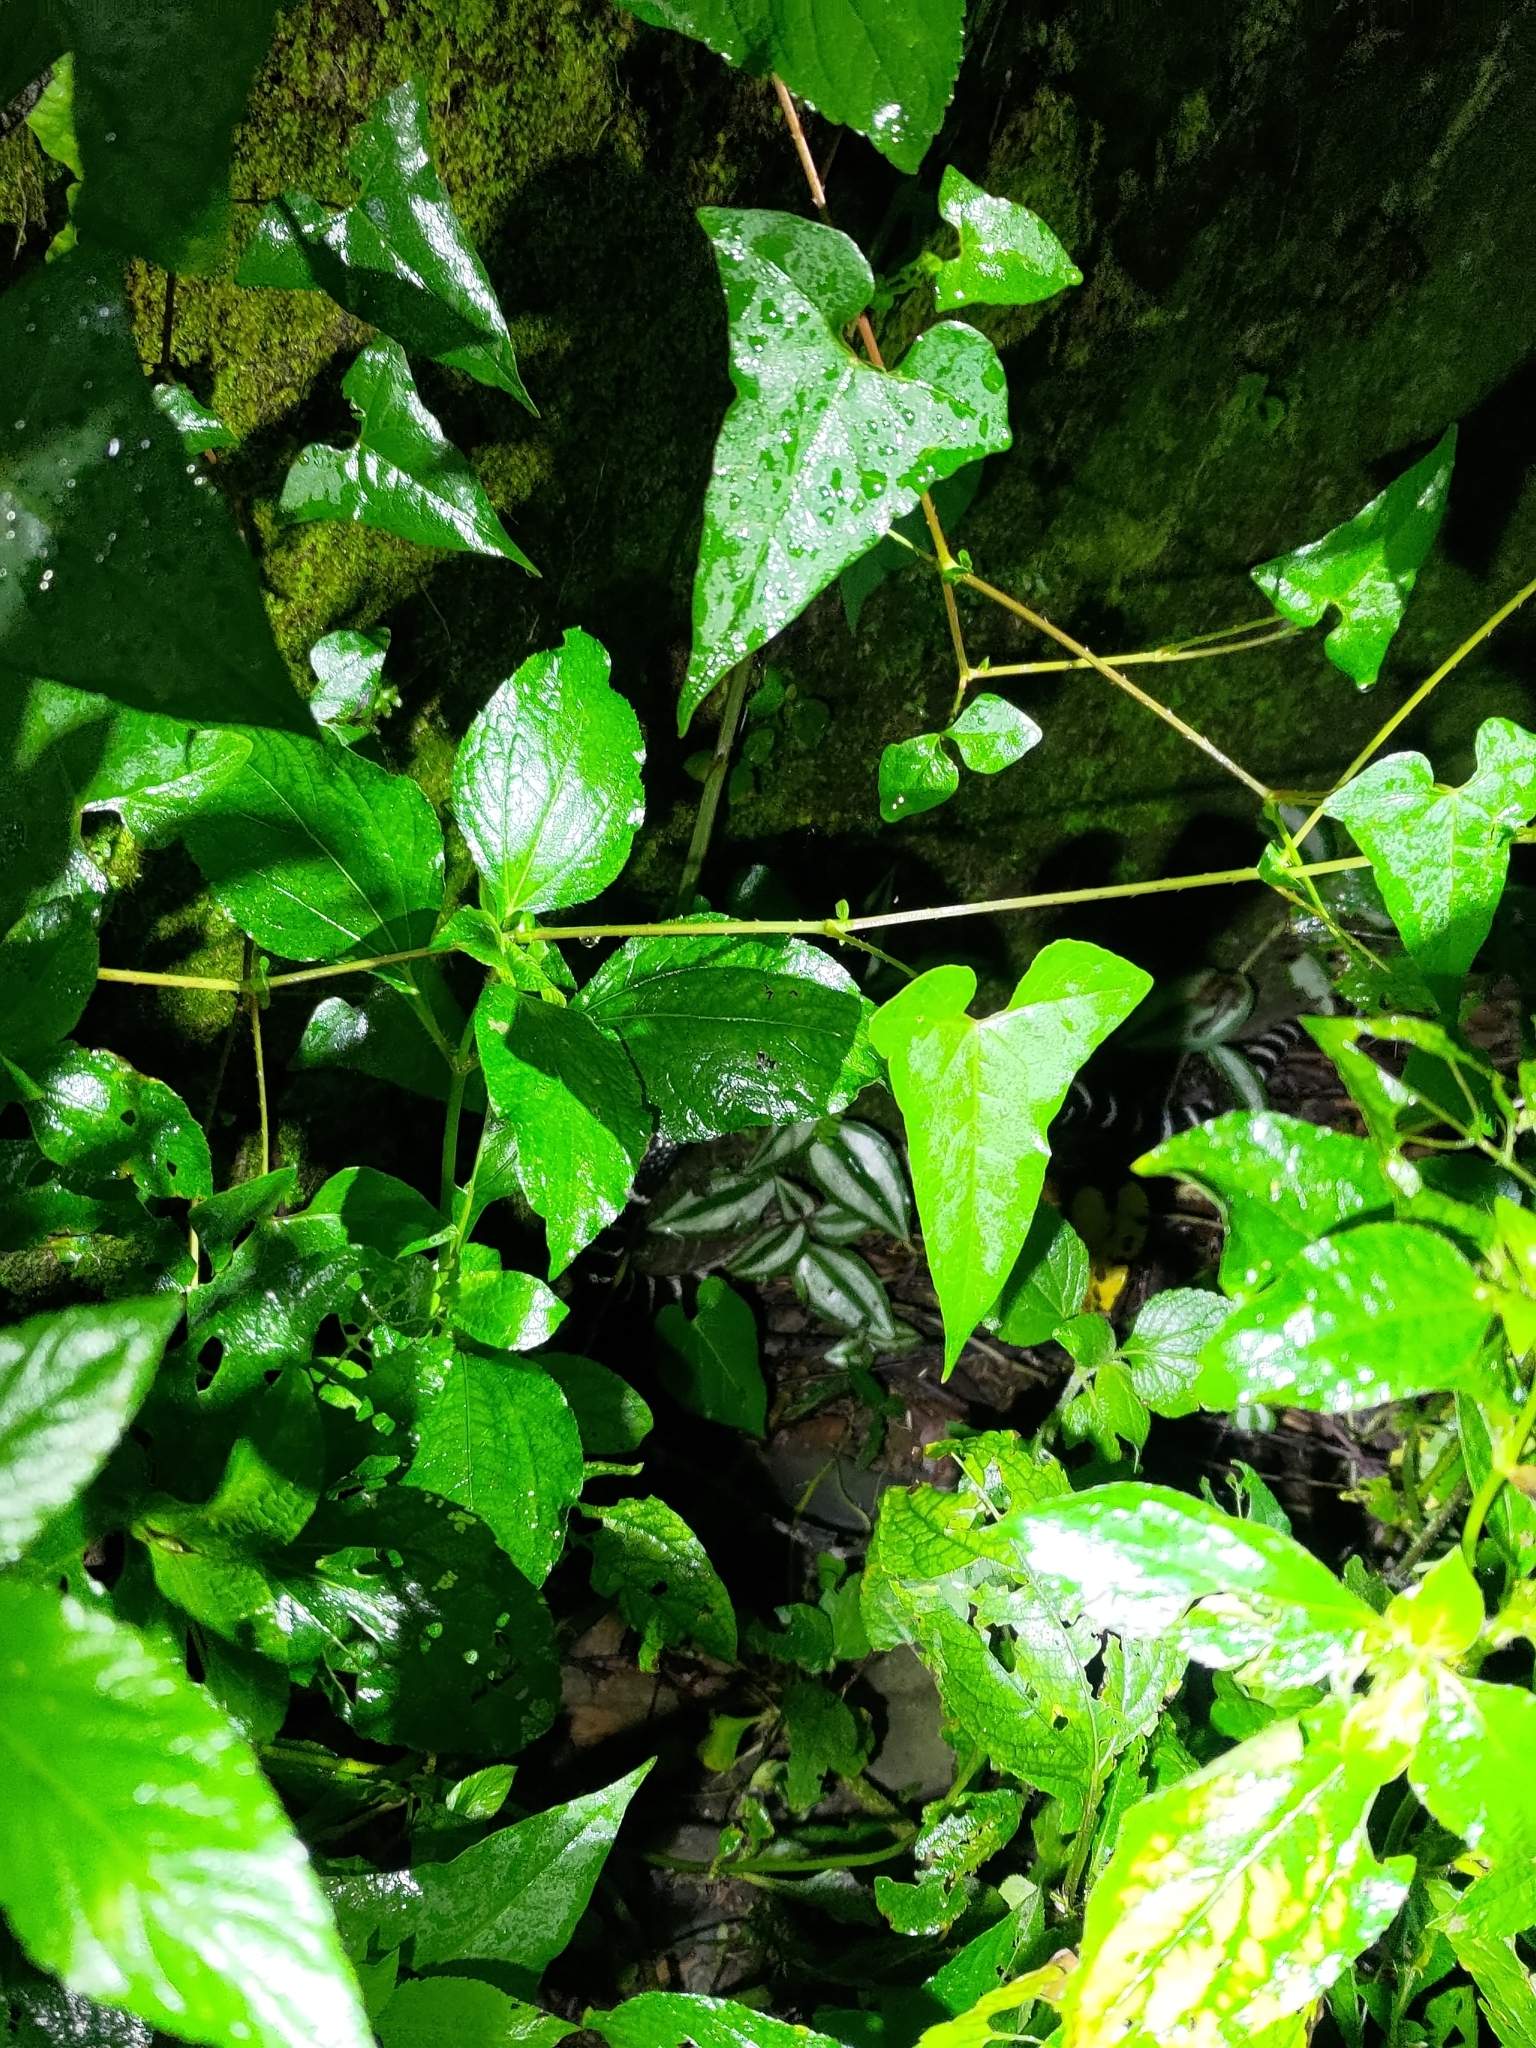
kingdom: Animalia
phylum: Chordata
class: Squamata
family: Elapidae
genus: Bungarus
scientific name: Bungarus multicinctus
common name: Many-banded krait
